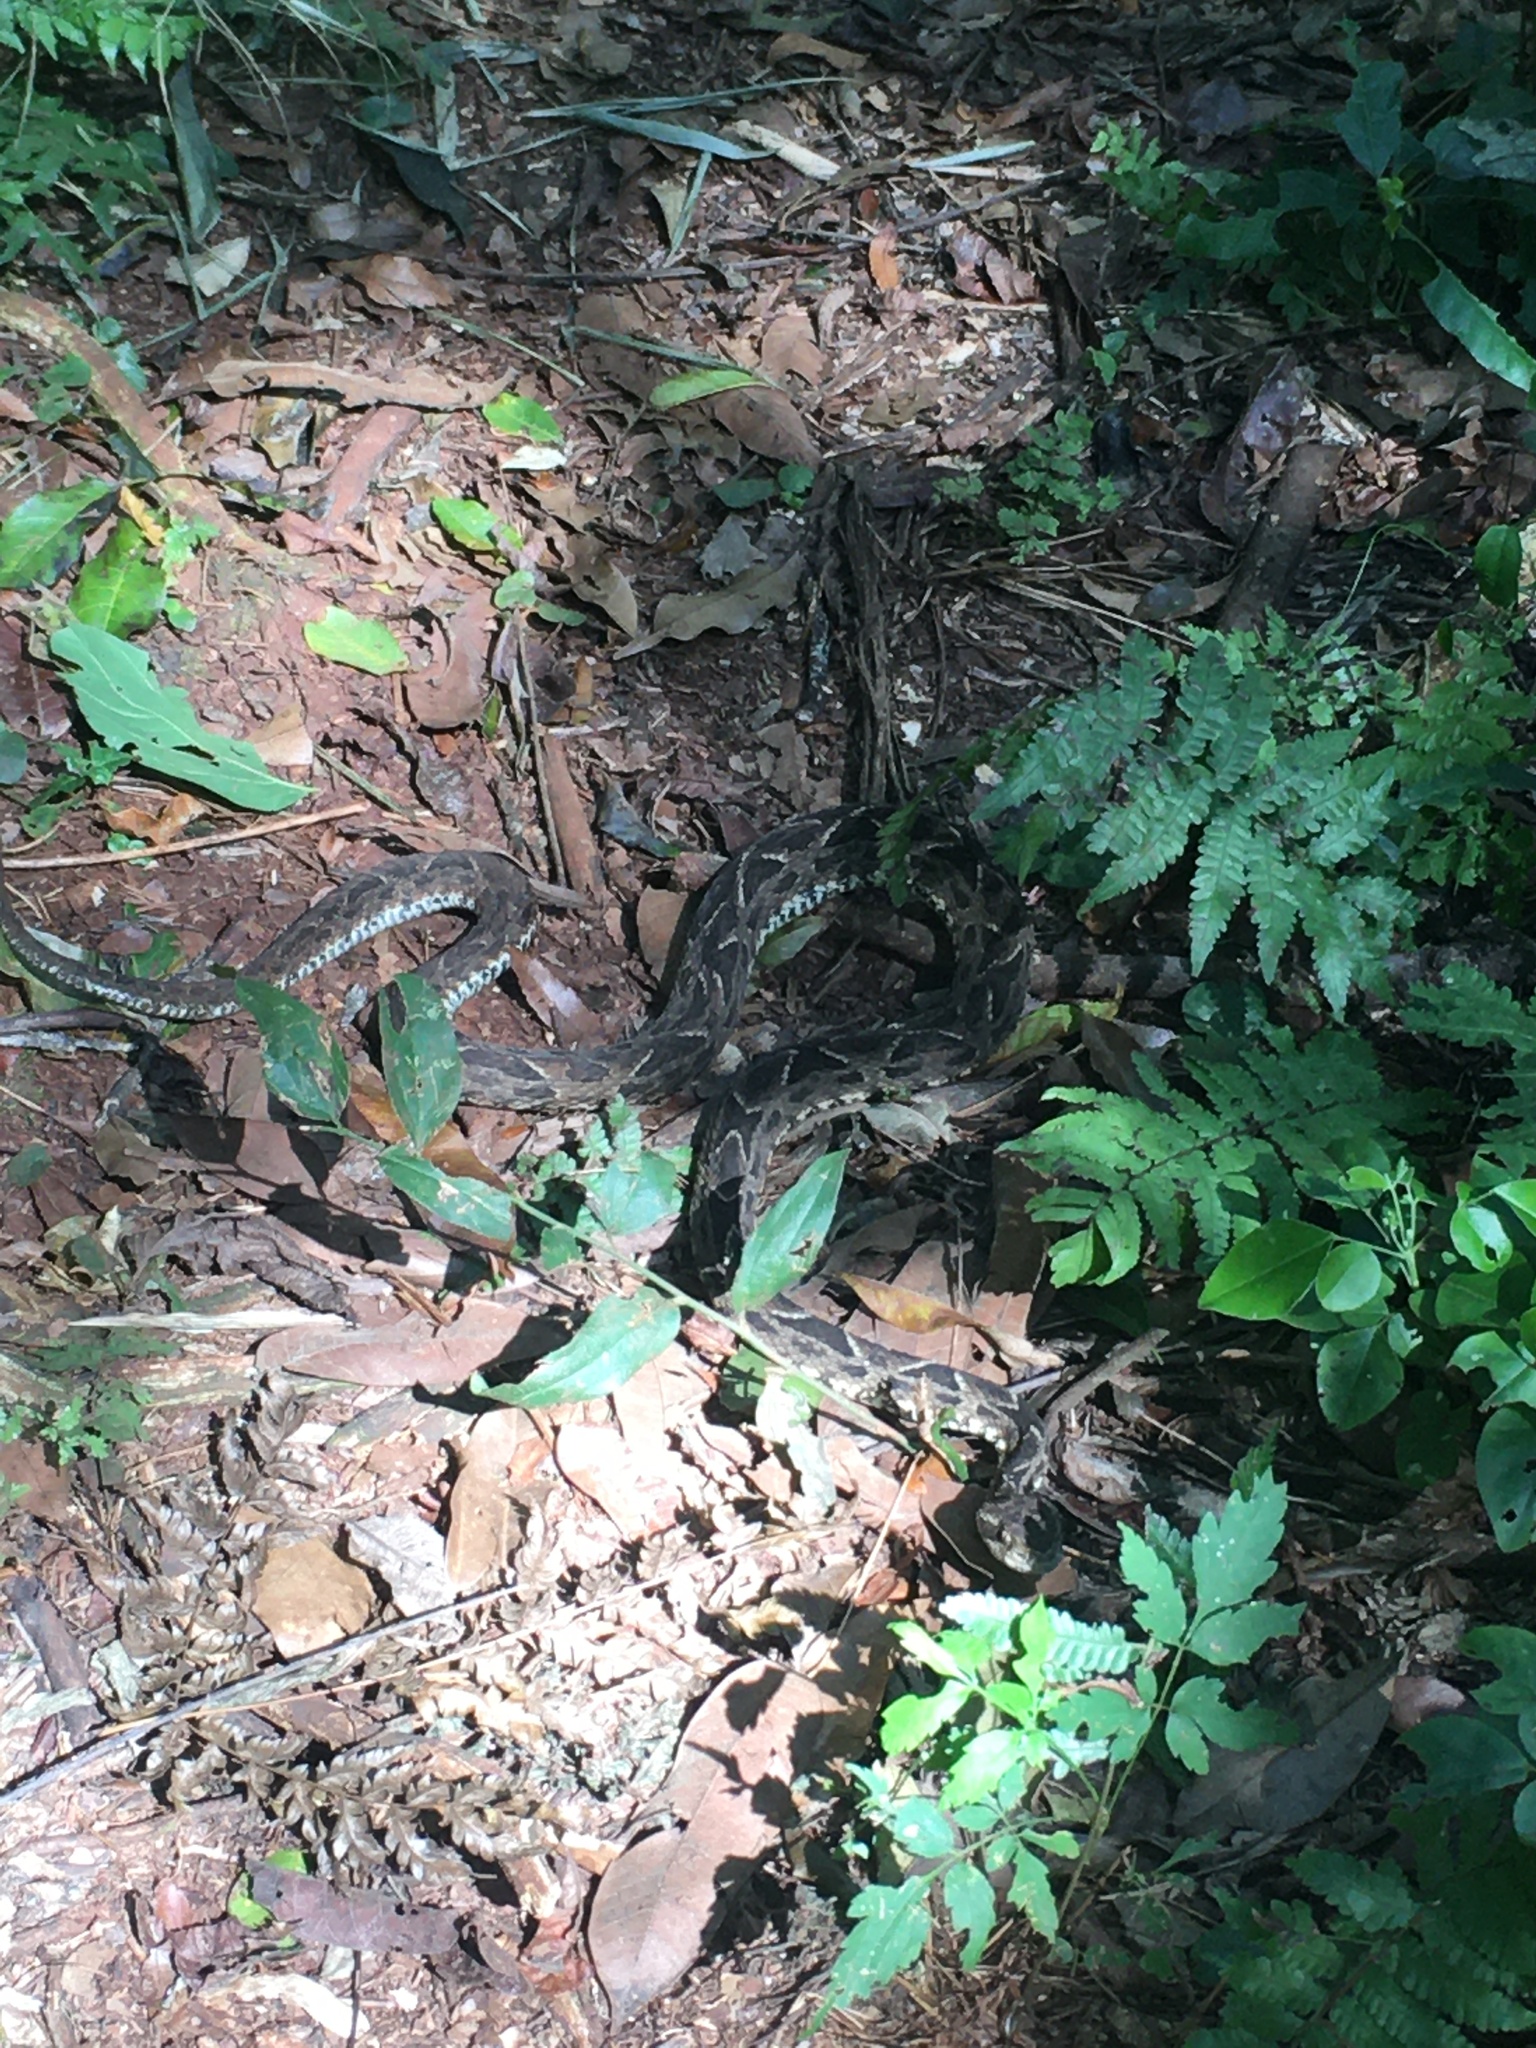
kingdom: Animalia
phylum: Chordata
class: Squamata
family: Viperidae
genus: Bothrops
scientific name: Bothrops
